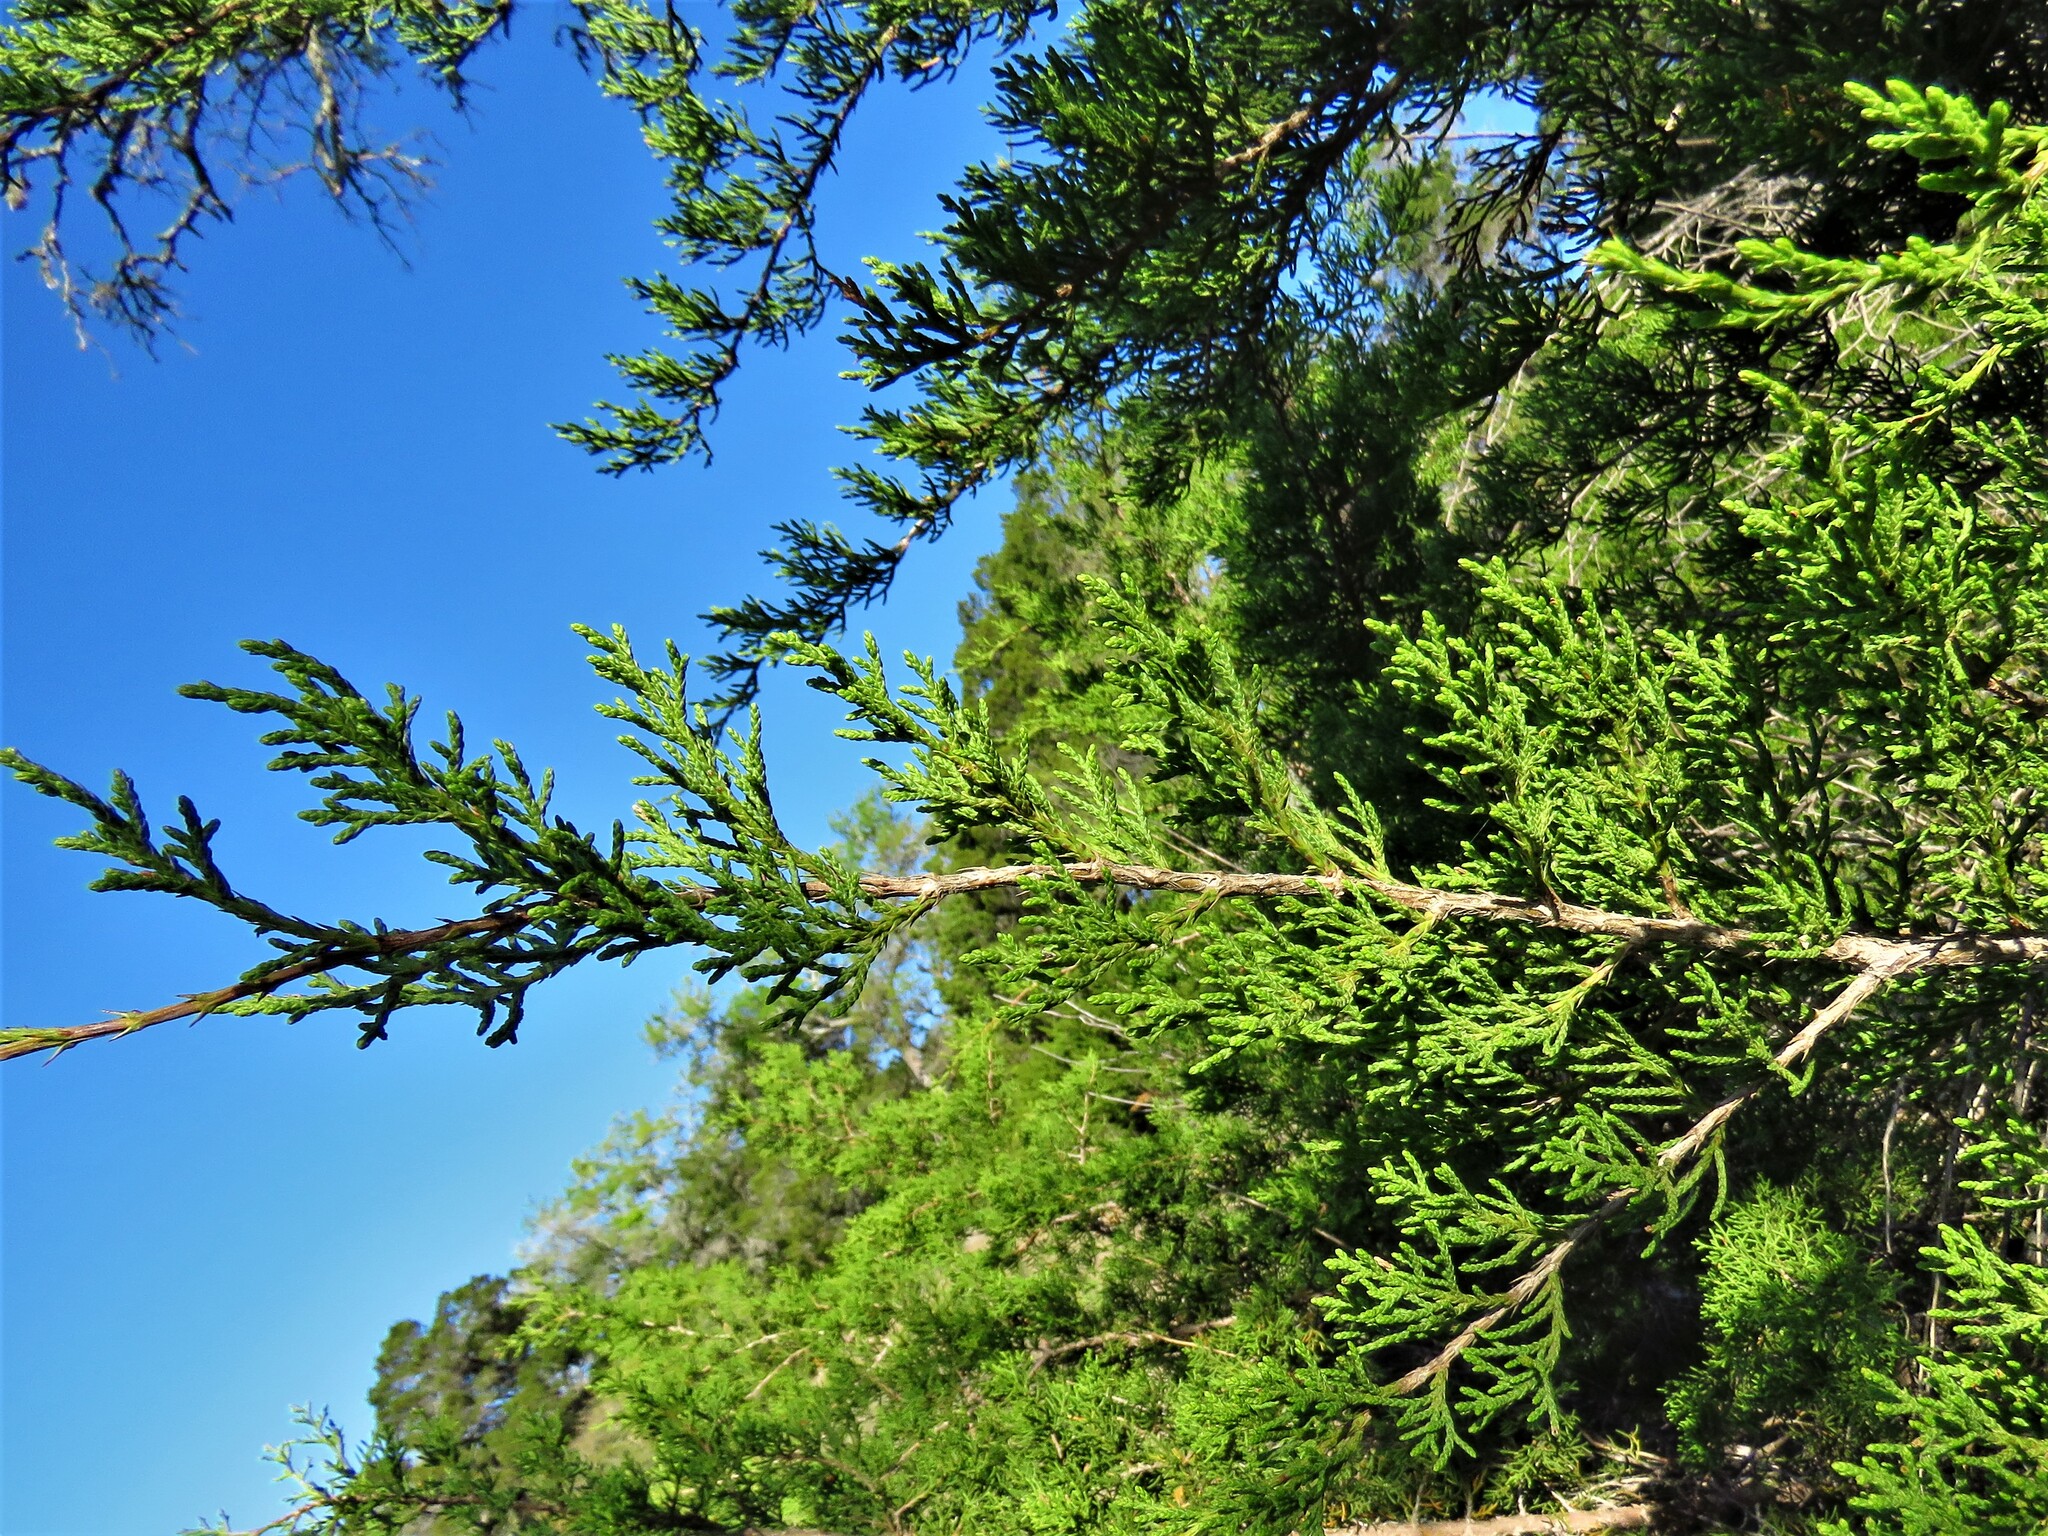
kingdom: Plantae
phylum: Tracheophyta
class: Pinopsida
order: Pinales
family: Cupressaceae
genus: Juniperus
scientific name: Juniperus ashei
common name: Mexican juniper
